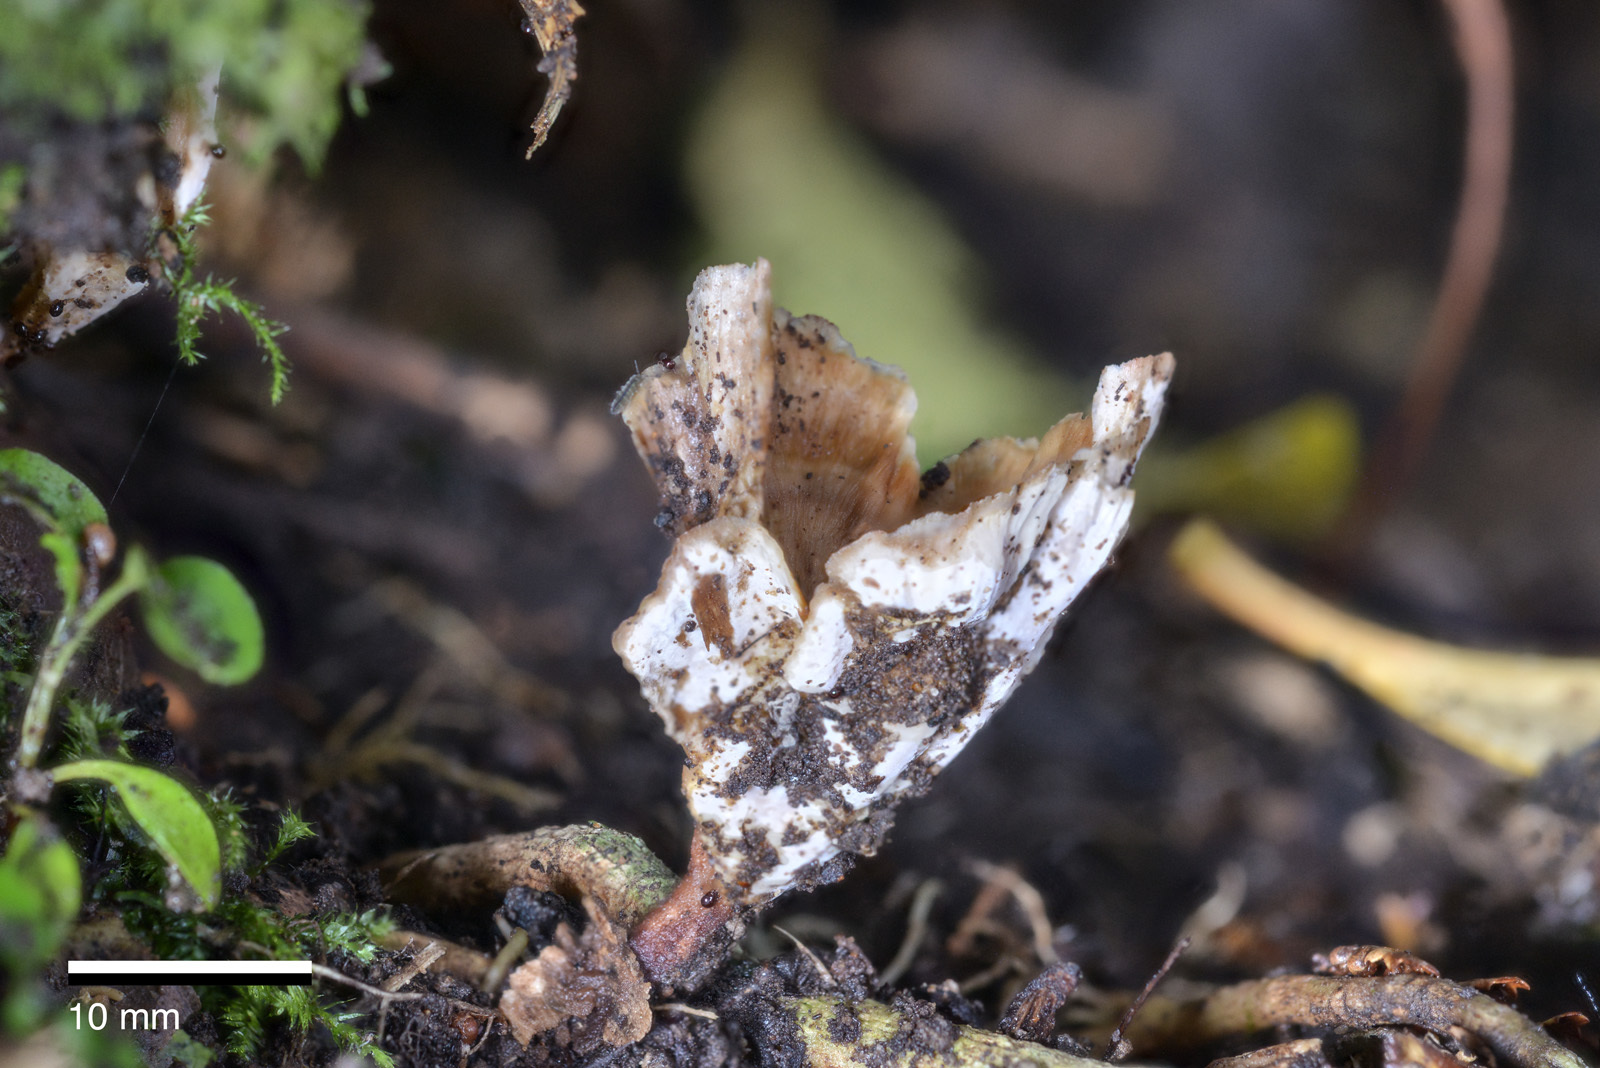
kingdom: Fungi
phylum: Basidiomycota
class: Agaricomycetes
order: Polyporales
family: Podoscyphaceae
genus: Podoscypha
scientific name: Podoscypha petalodes
